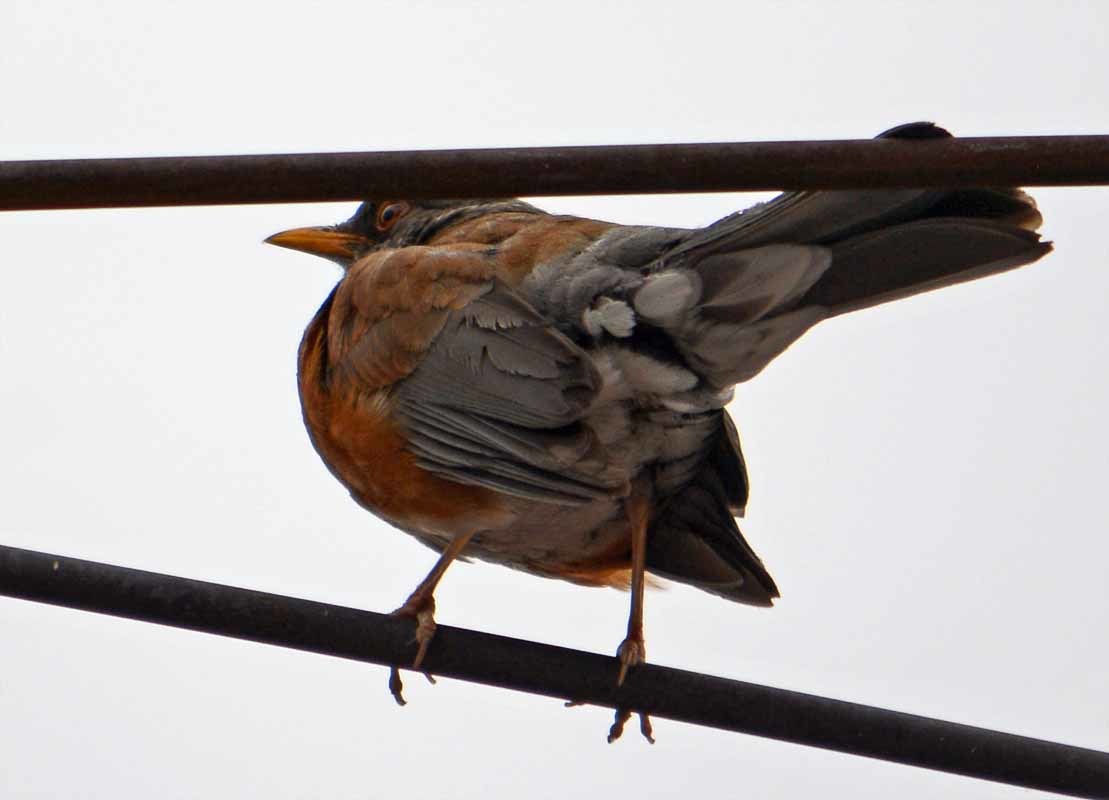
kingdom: Animalia
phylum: Chordata
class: Aves
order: Passeriformes
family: Turdidae
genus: Turdus
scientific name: Turdus rufopalliatus
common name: Rufous-backed robin
